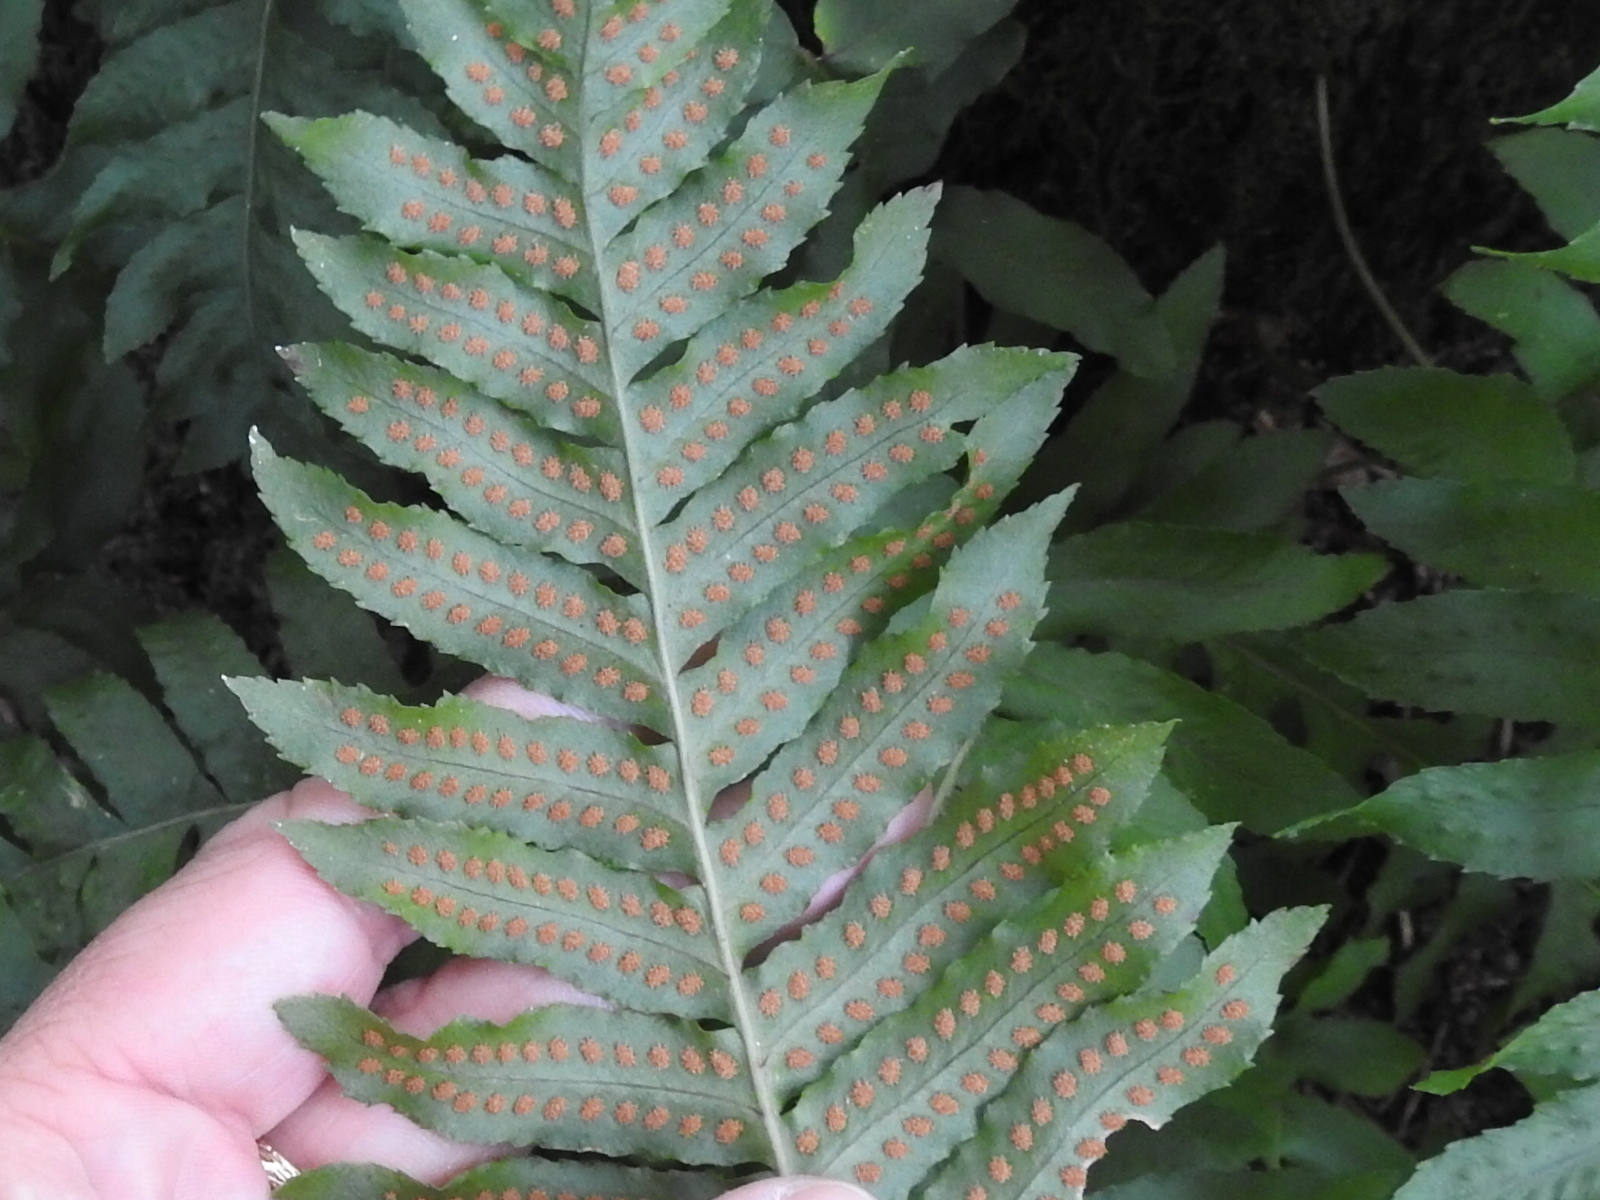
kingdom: Plantae
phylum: Tracheophyta
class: Polypodiopsida
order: Polypodiales
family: Polypodiaceae
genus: Polypodium
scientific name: Polypodium californicum
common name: California polypody
